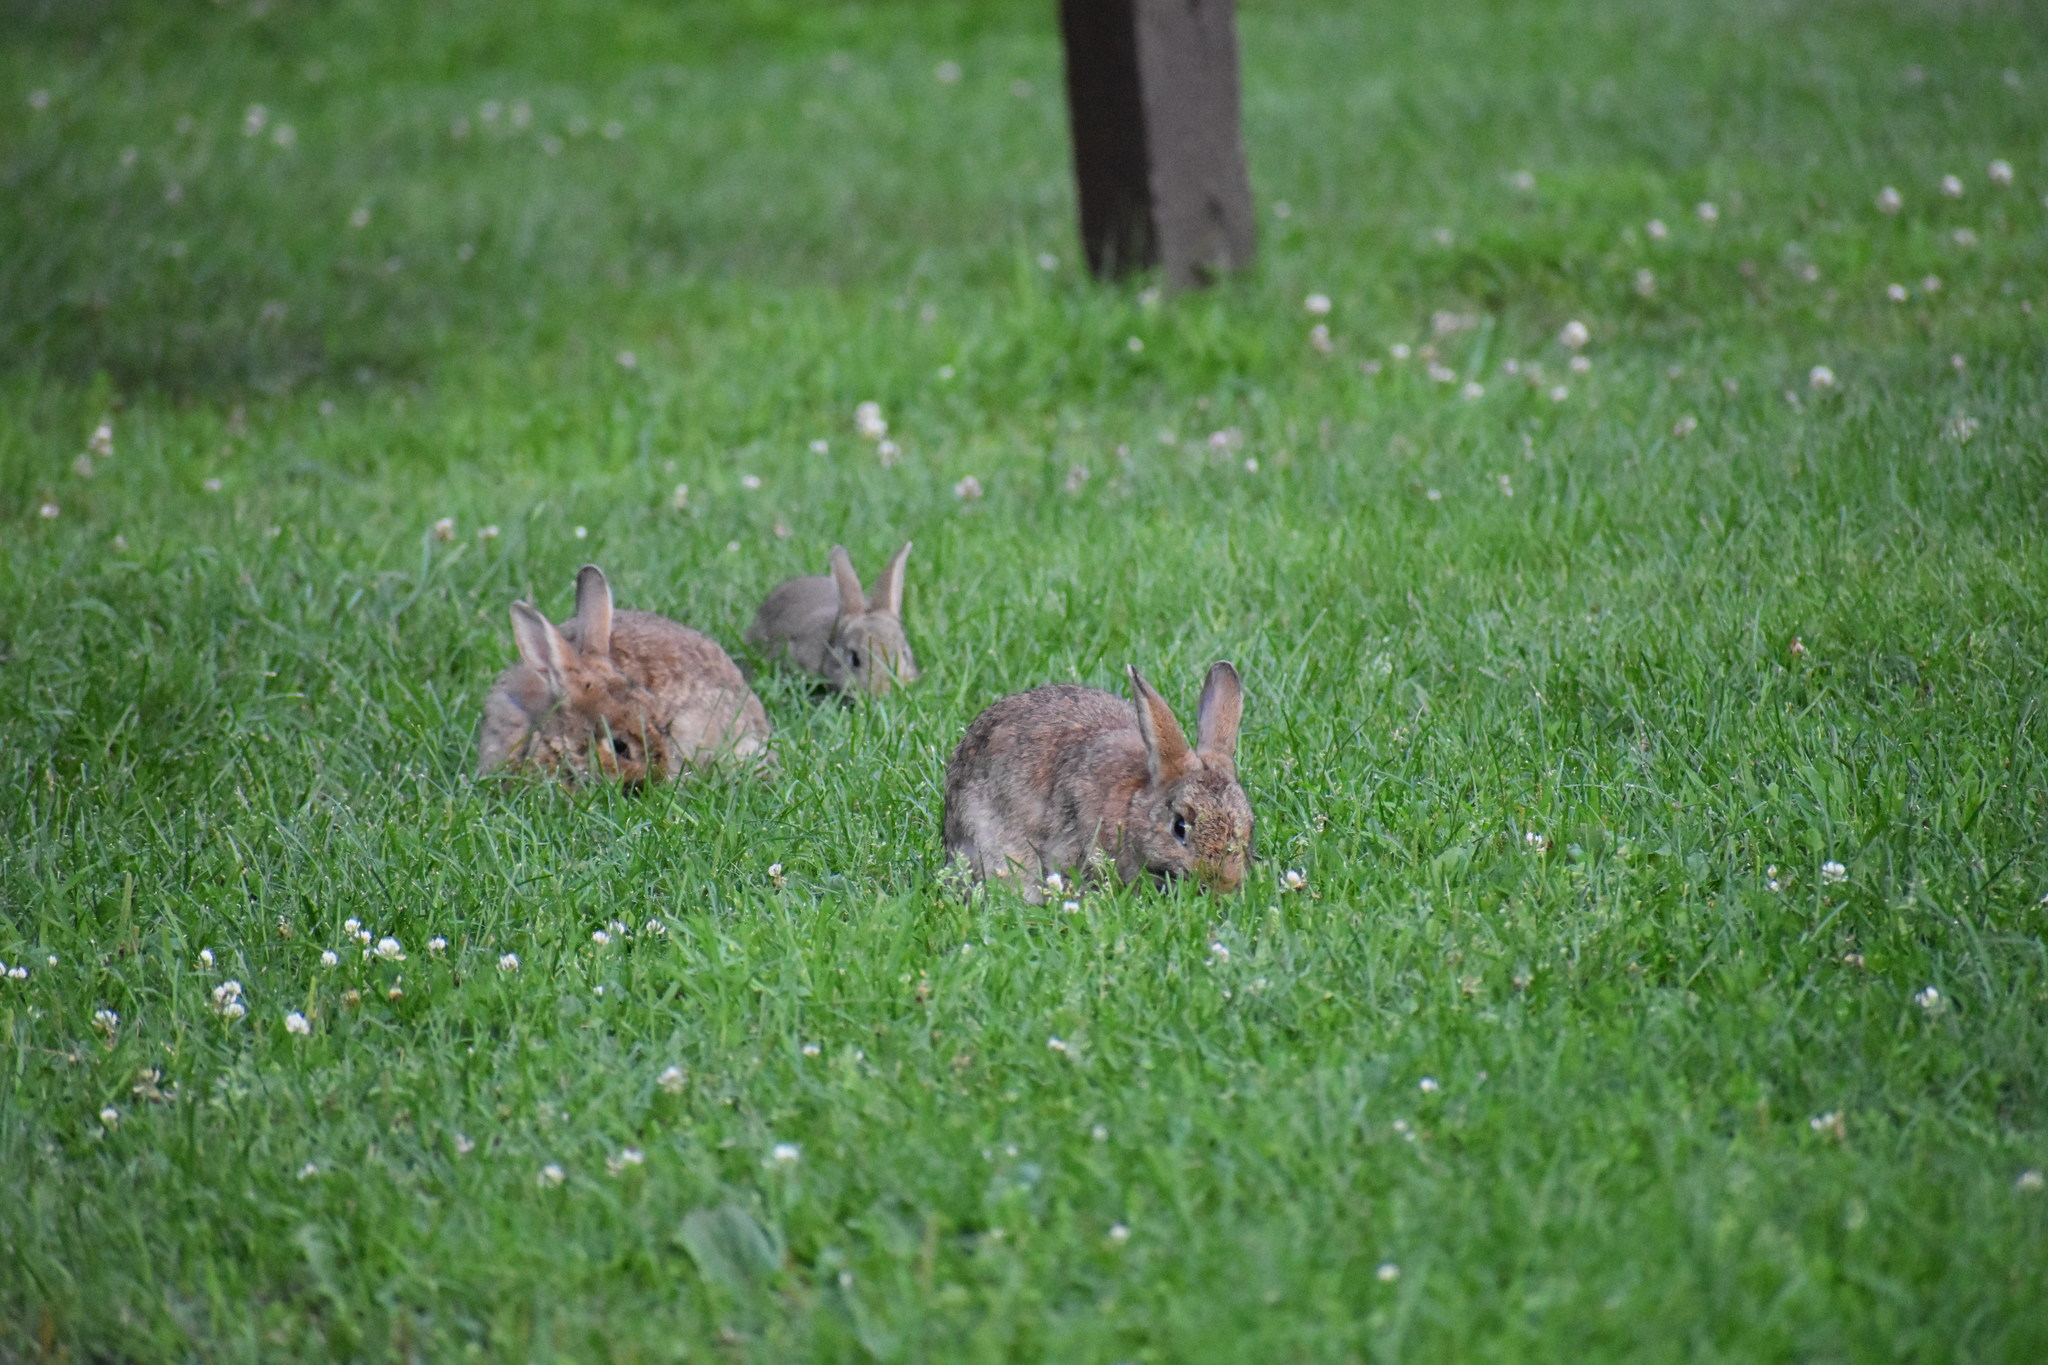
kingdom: Animalia
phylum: Chordata
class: Mammalia
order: Lagomorpha
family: Leporidae
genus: Oryctolagus
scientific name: Oryctolagus cuniculus
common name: European rabbit
